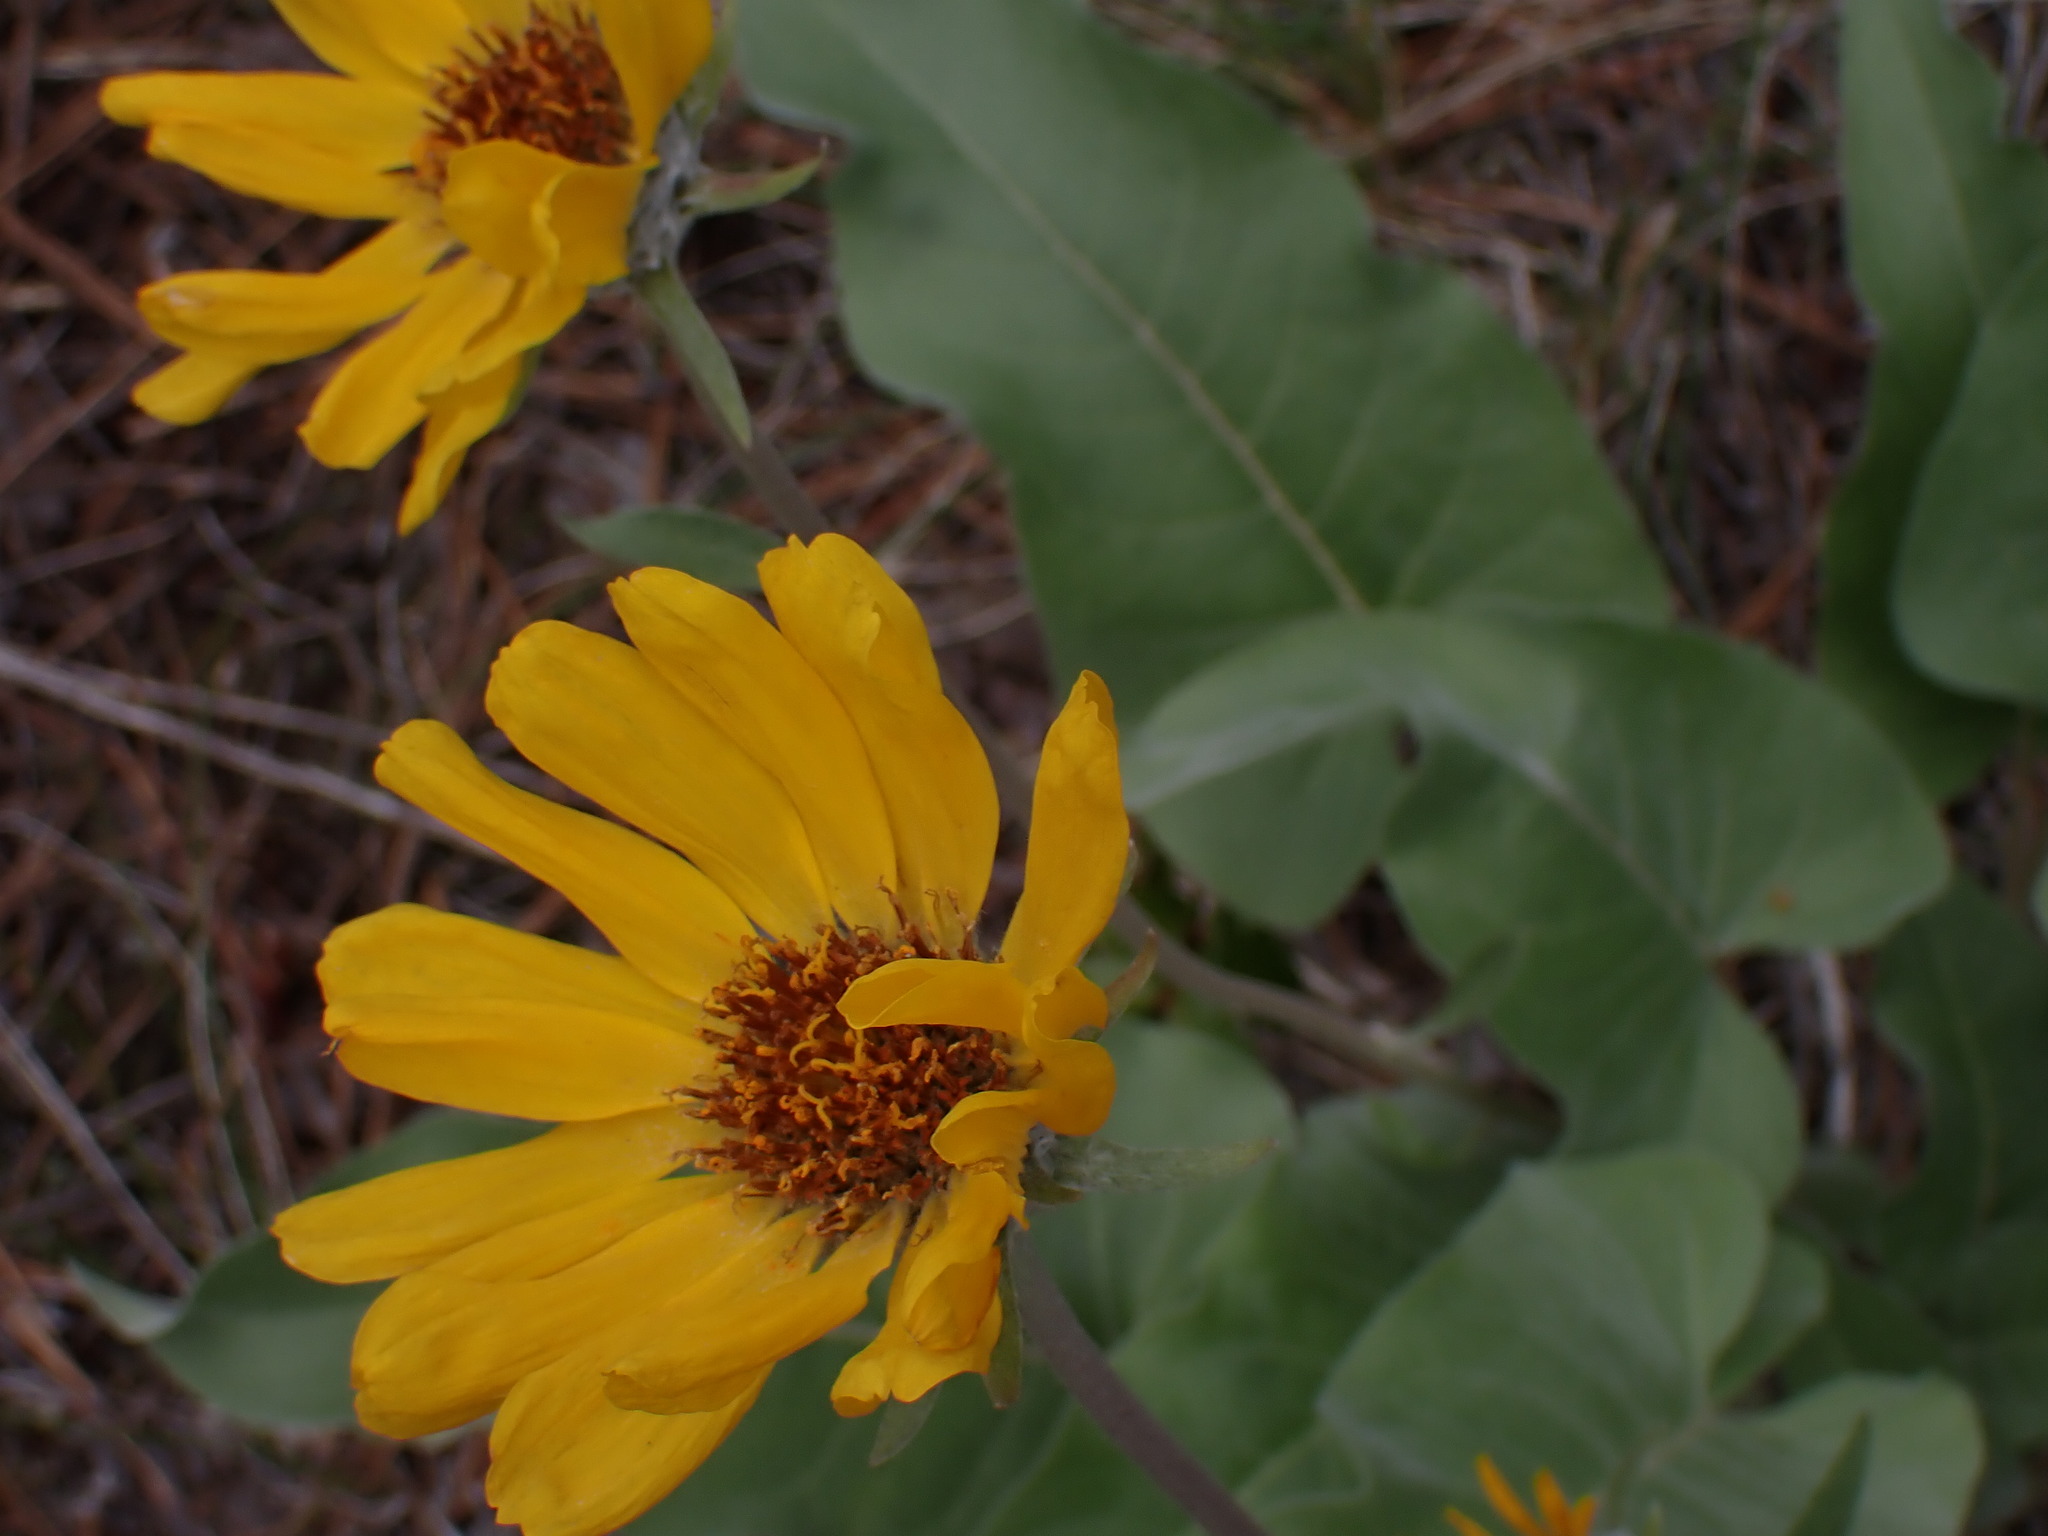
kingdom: Plantae
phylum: Tracheophyta
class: Magnoliopsida
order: Asterales
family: Asteraceae
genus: Wyethia
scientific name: Wyethia sagittata
